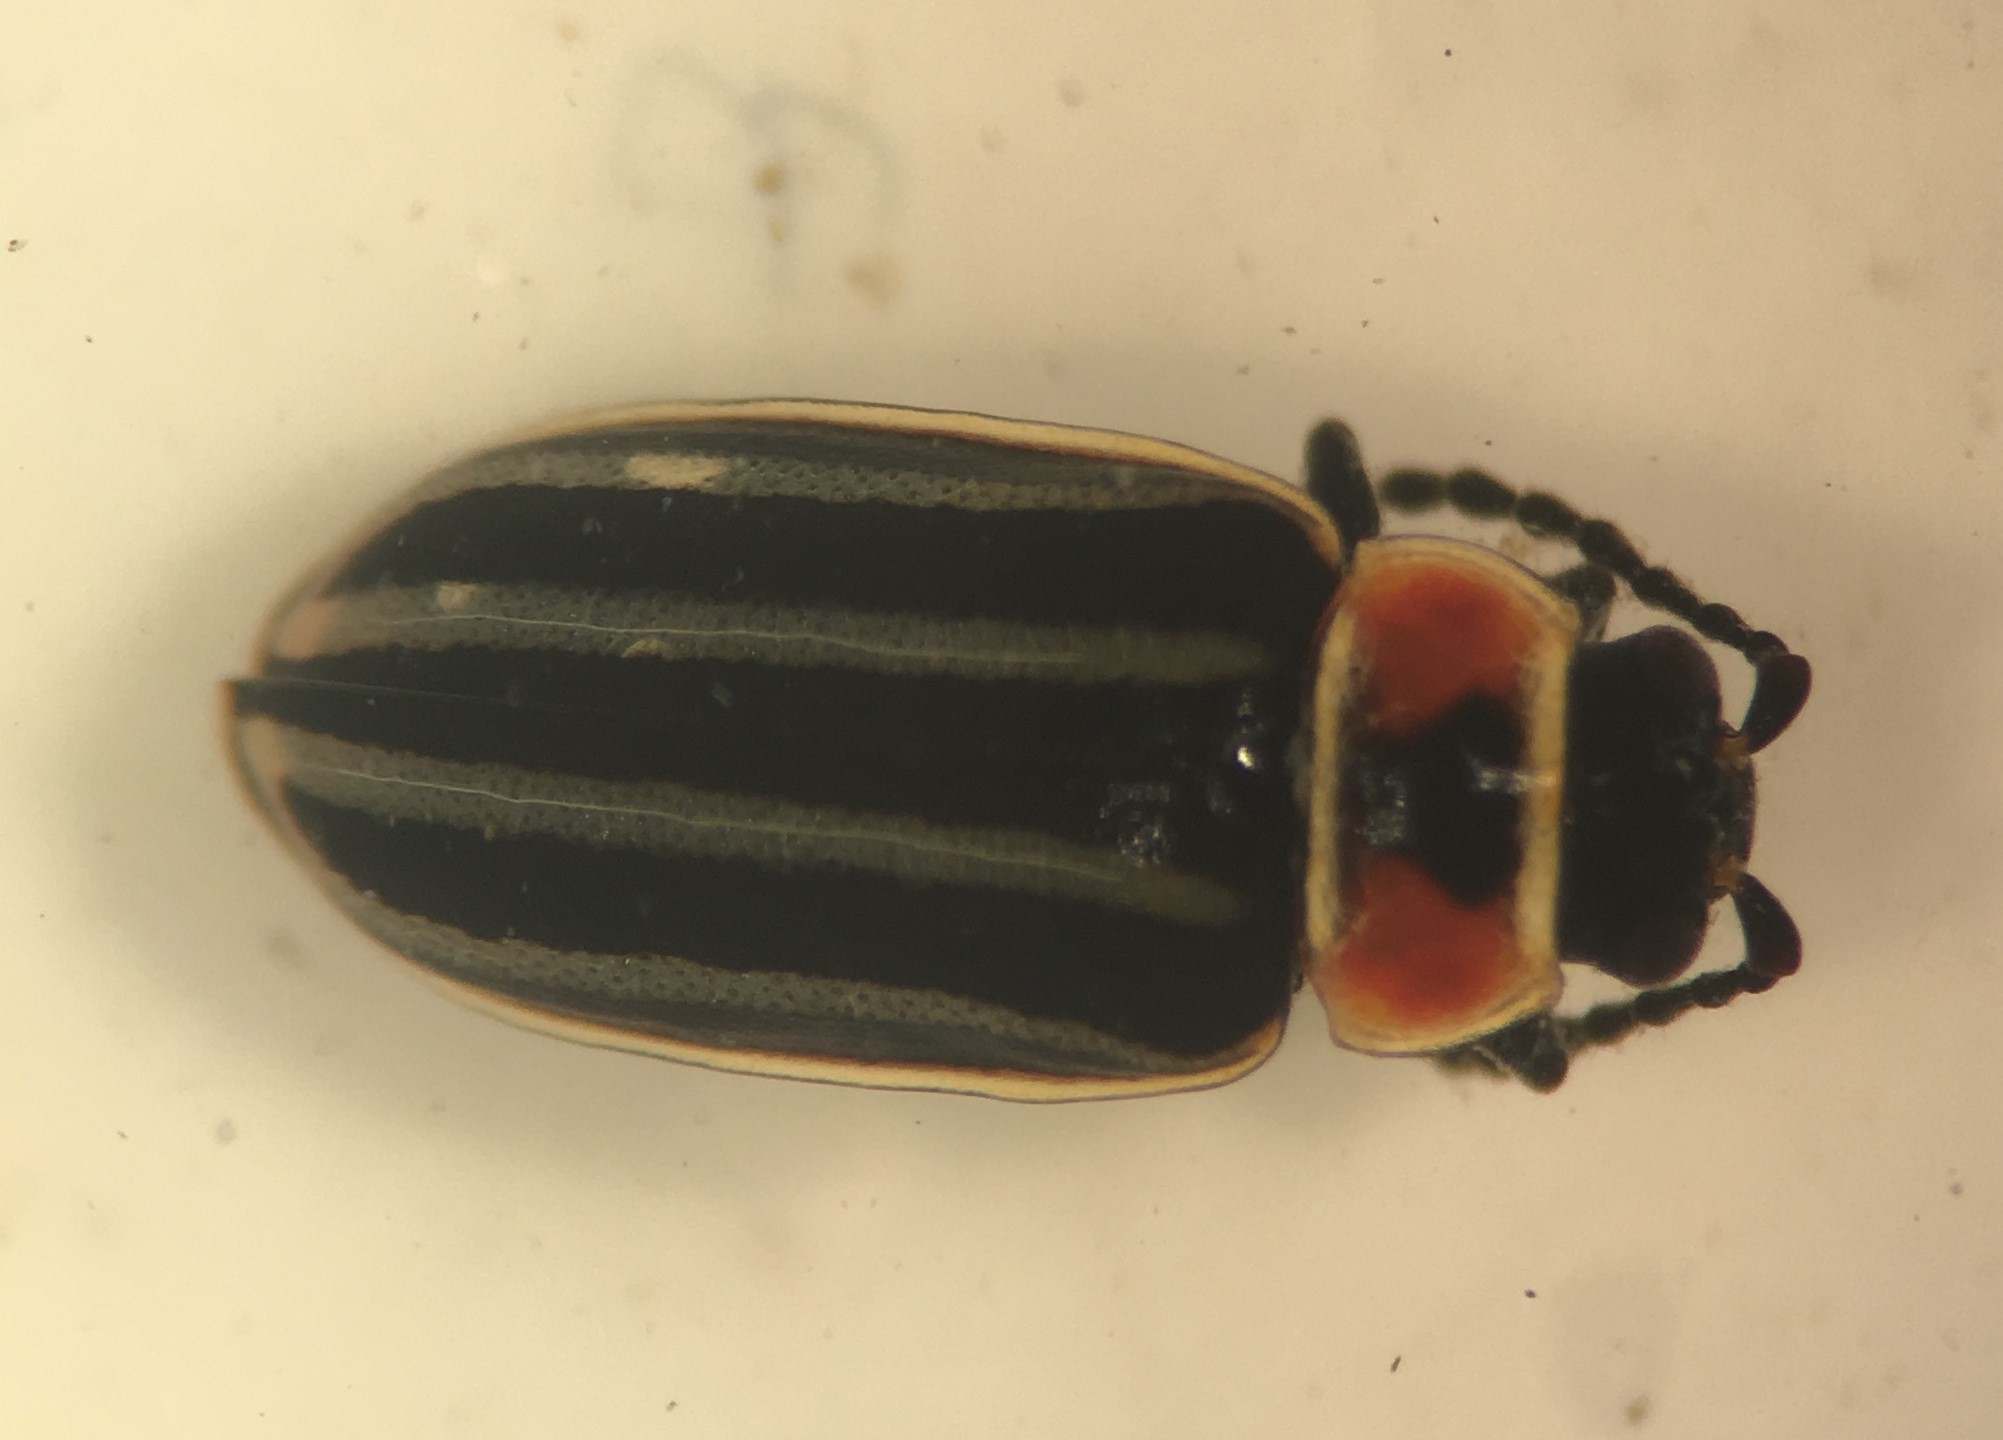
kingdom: Animalia
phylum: Arthropoda
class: Insecta
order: Coleoptera
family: Chrysomelidae
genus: Disonycha
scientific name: Disonycha pensylvanica
